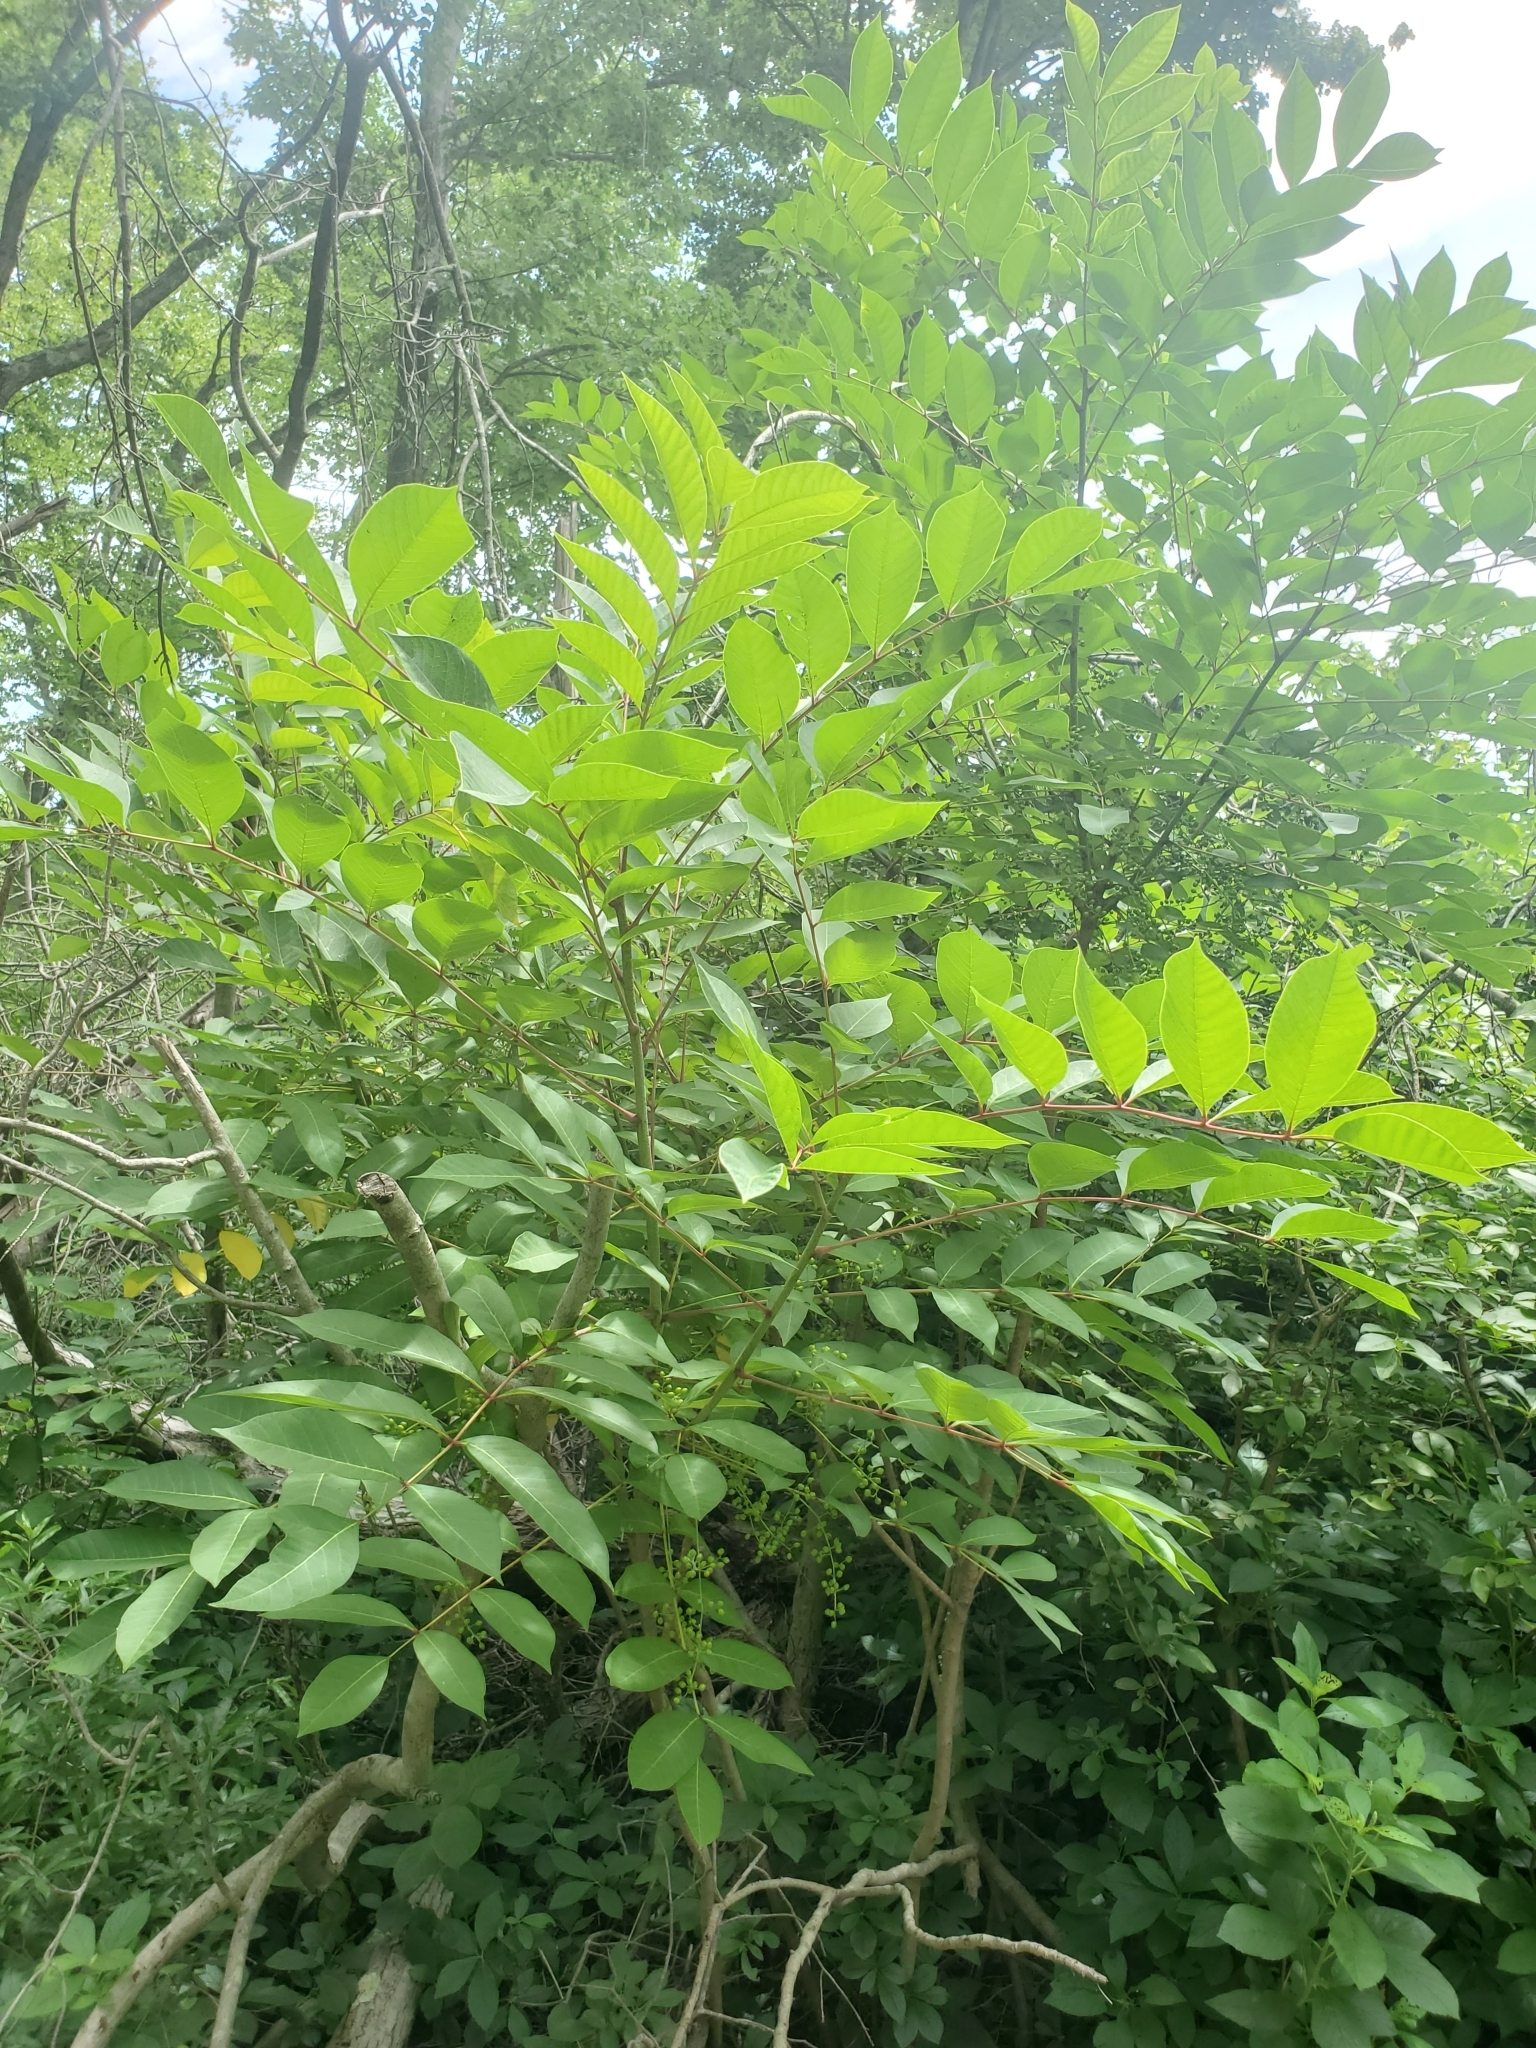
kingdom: Plantae
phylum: Tracheophyta
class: Magnoliopsida
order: Sapindales
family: Anacardiaceae
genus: Toxicodendron
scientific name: Toxicodendron vernix
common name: Poison sumac
